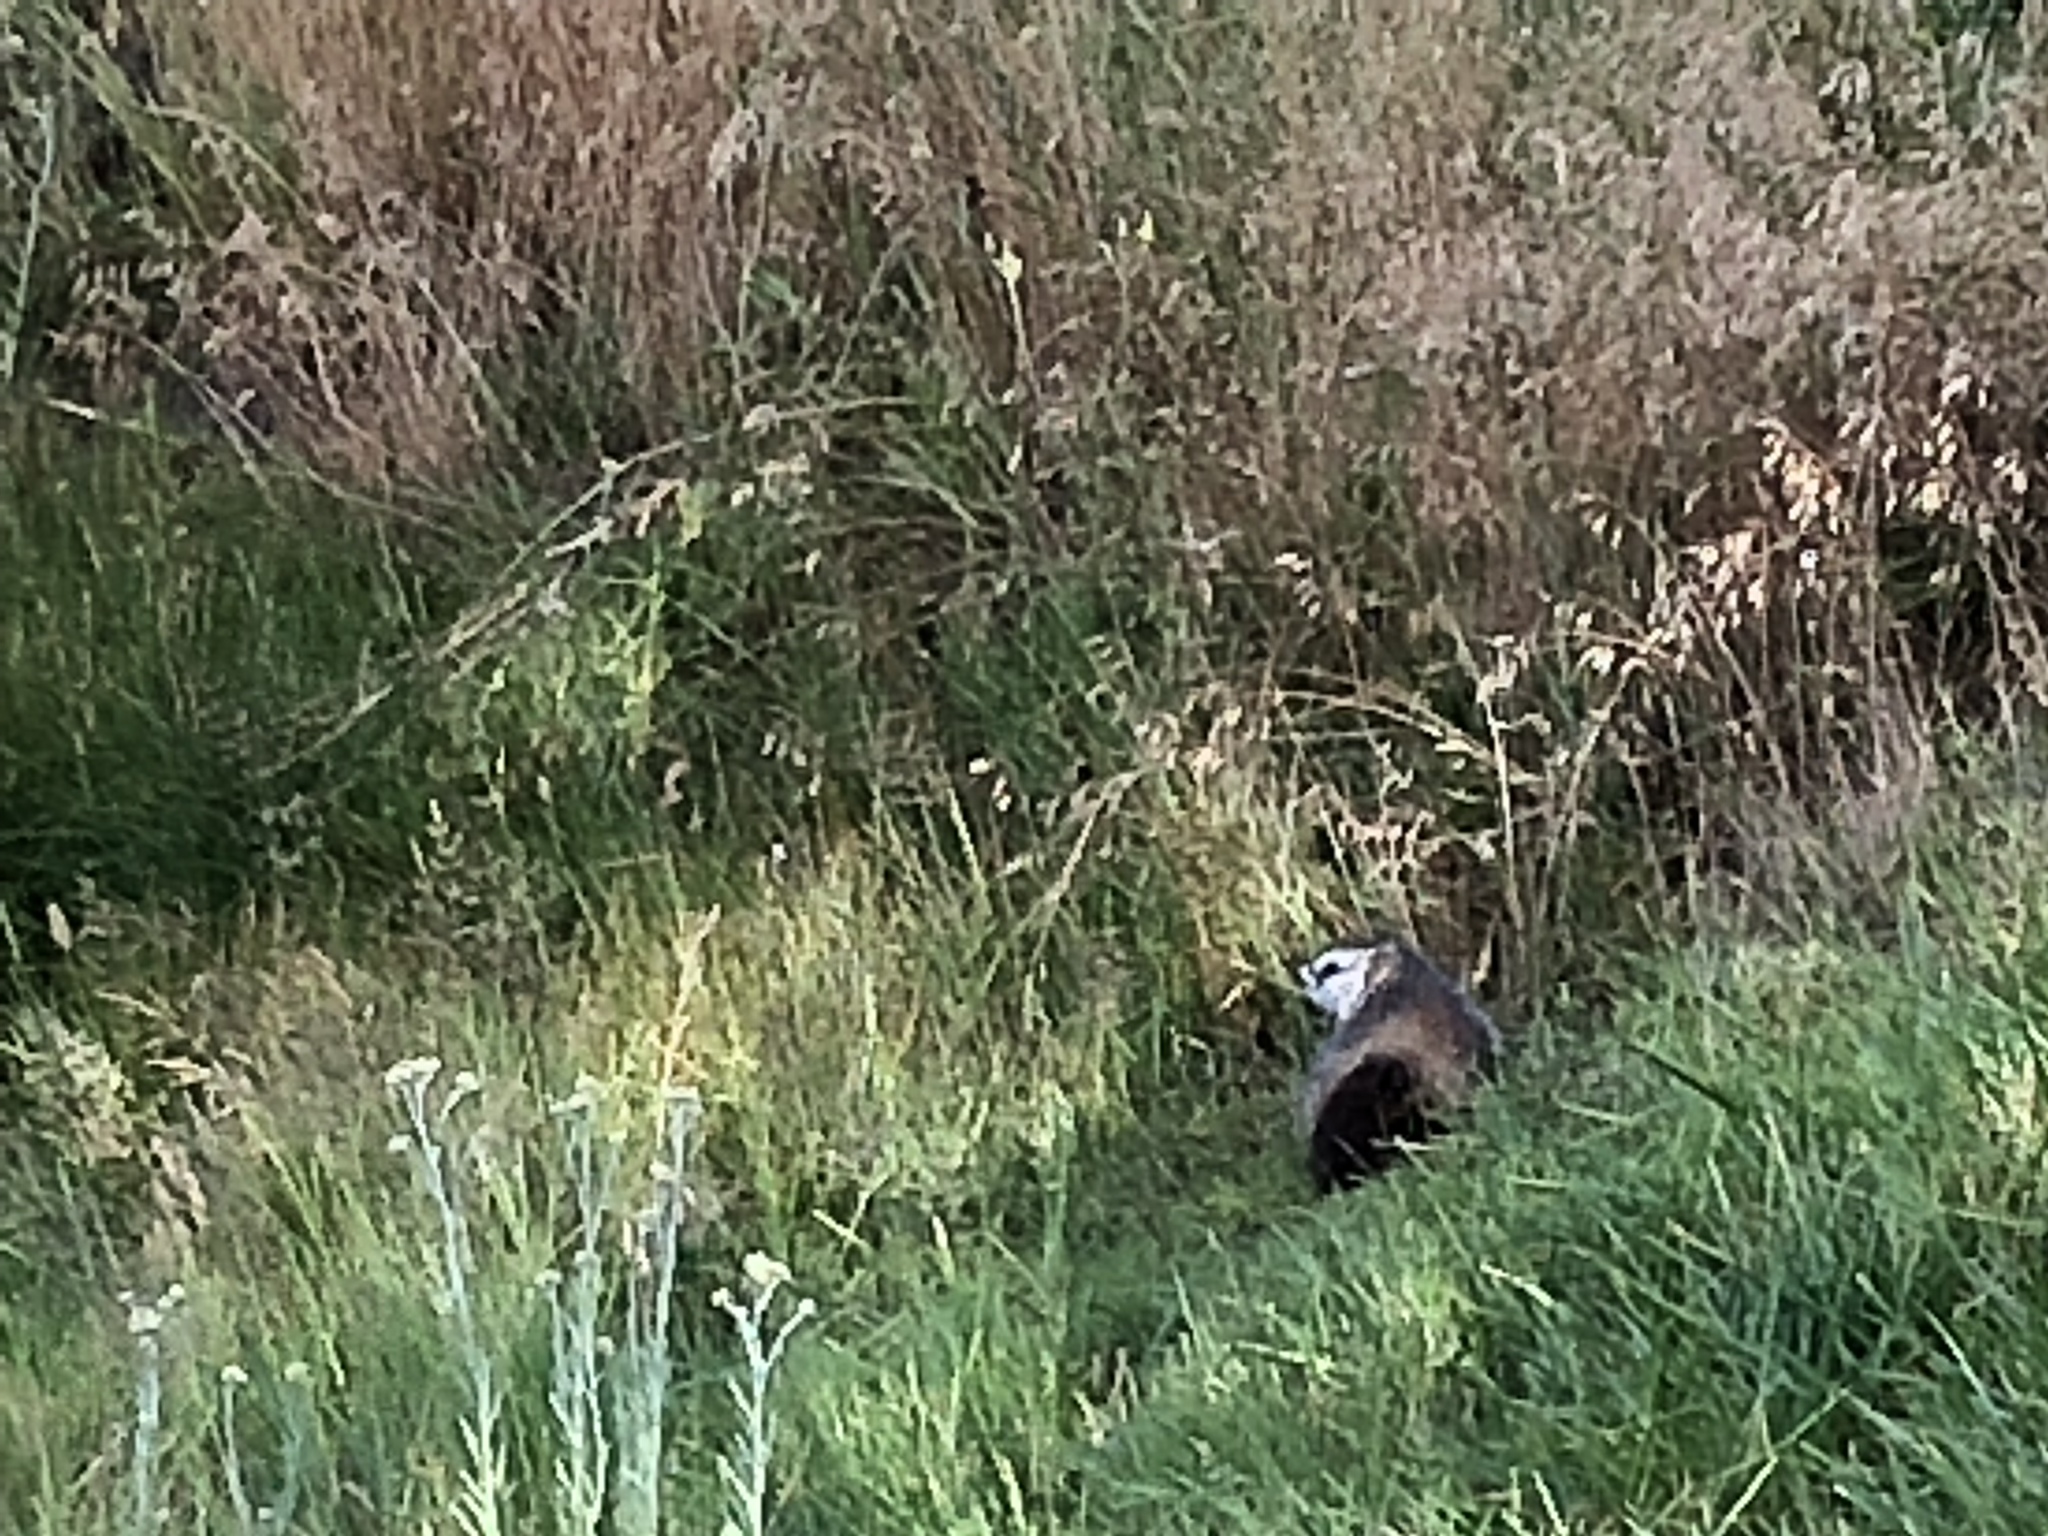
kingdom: Animalia
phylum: Chordata
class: Mammalia
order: Rodentia
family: Sciuridae
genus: Marmota
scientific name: Marmota flaviventris
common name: Yellow-bellied marmot
